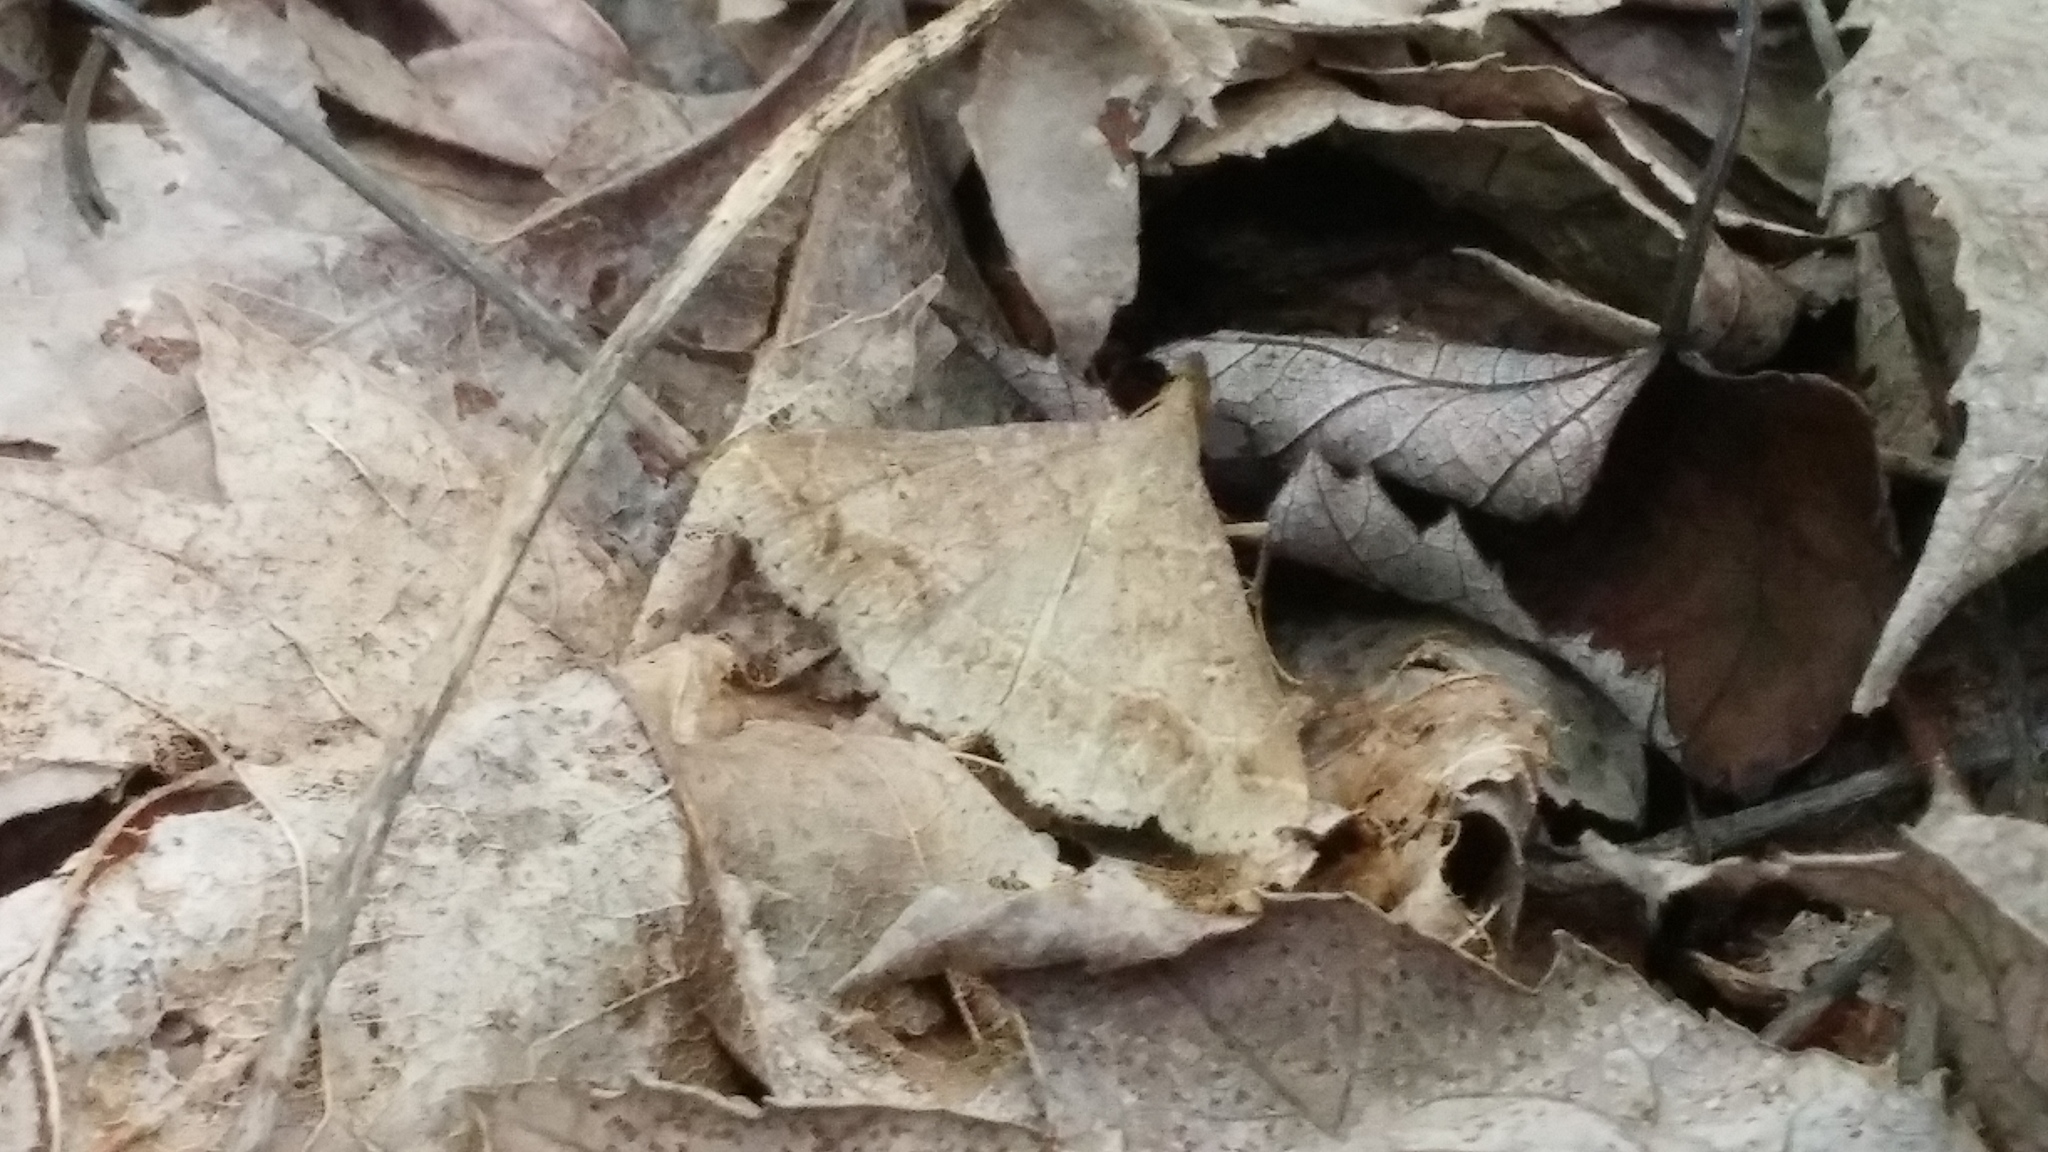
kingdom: Animalia
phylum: Arthropoda
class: Insecta
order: Lepidoptera
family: Erebidae
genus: Renia
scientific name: Renia flavipunctalis
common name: Yellow-spotted renia moth
